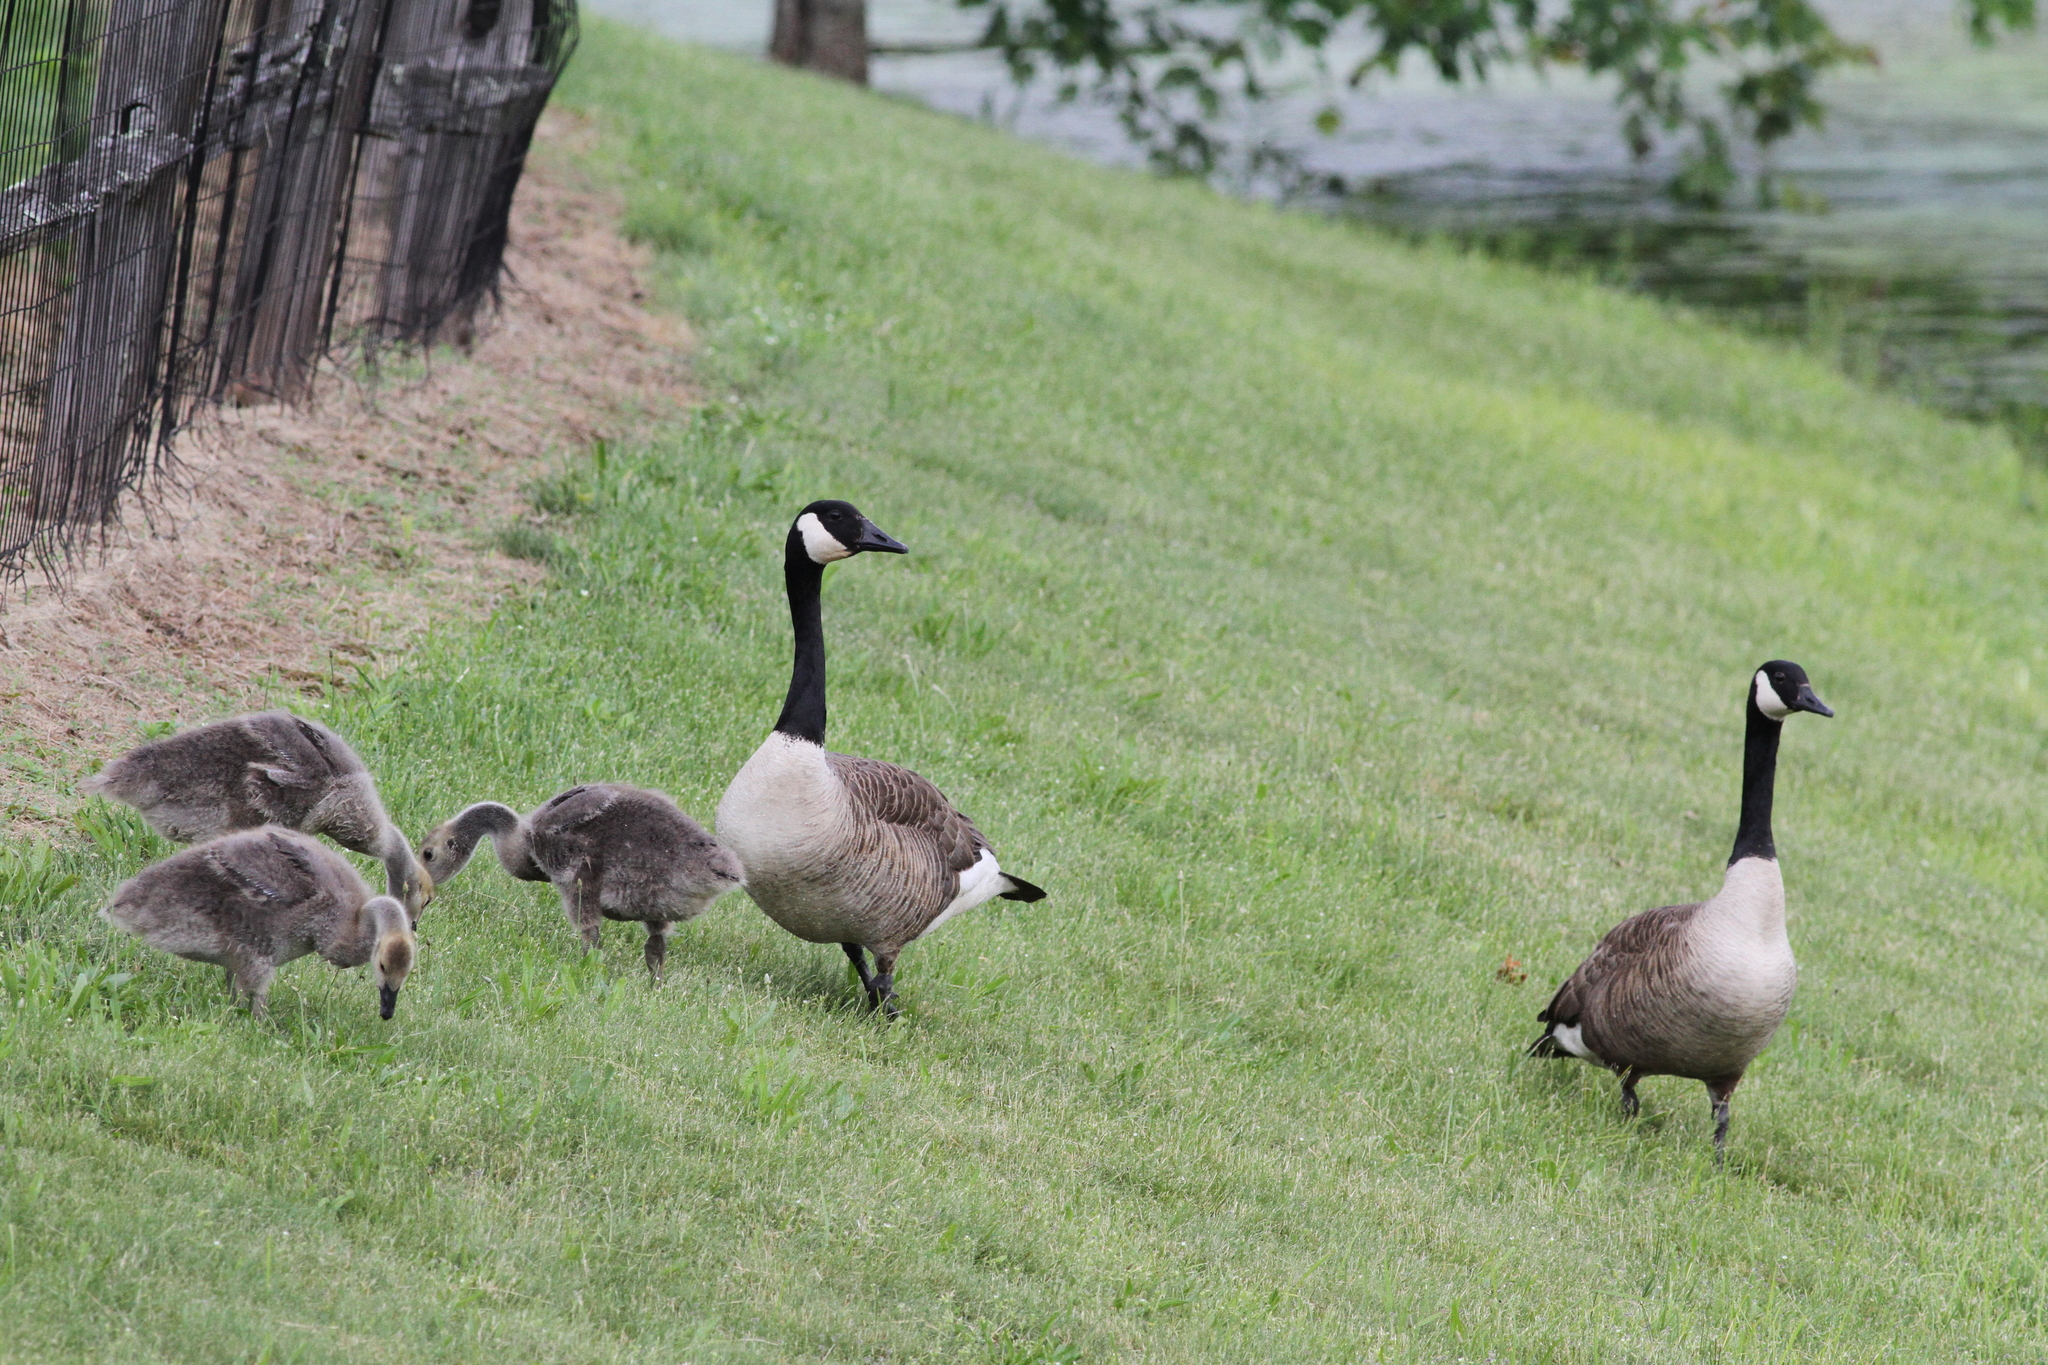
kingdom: Animalia
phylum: Chordata
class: Aves
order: Anseriformes
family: Anatidae
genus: Branta
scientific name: Branta canadensis
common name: Canada goose
